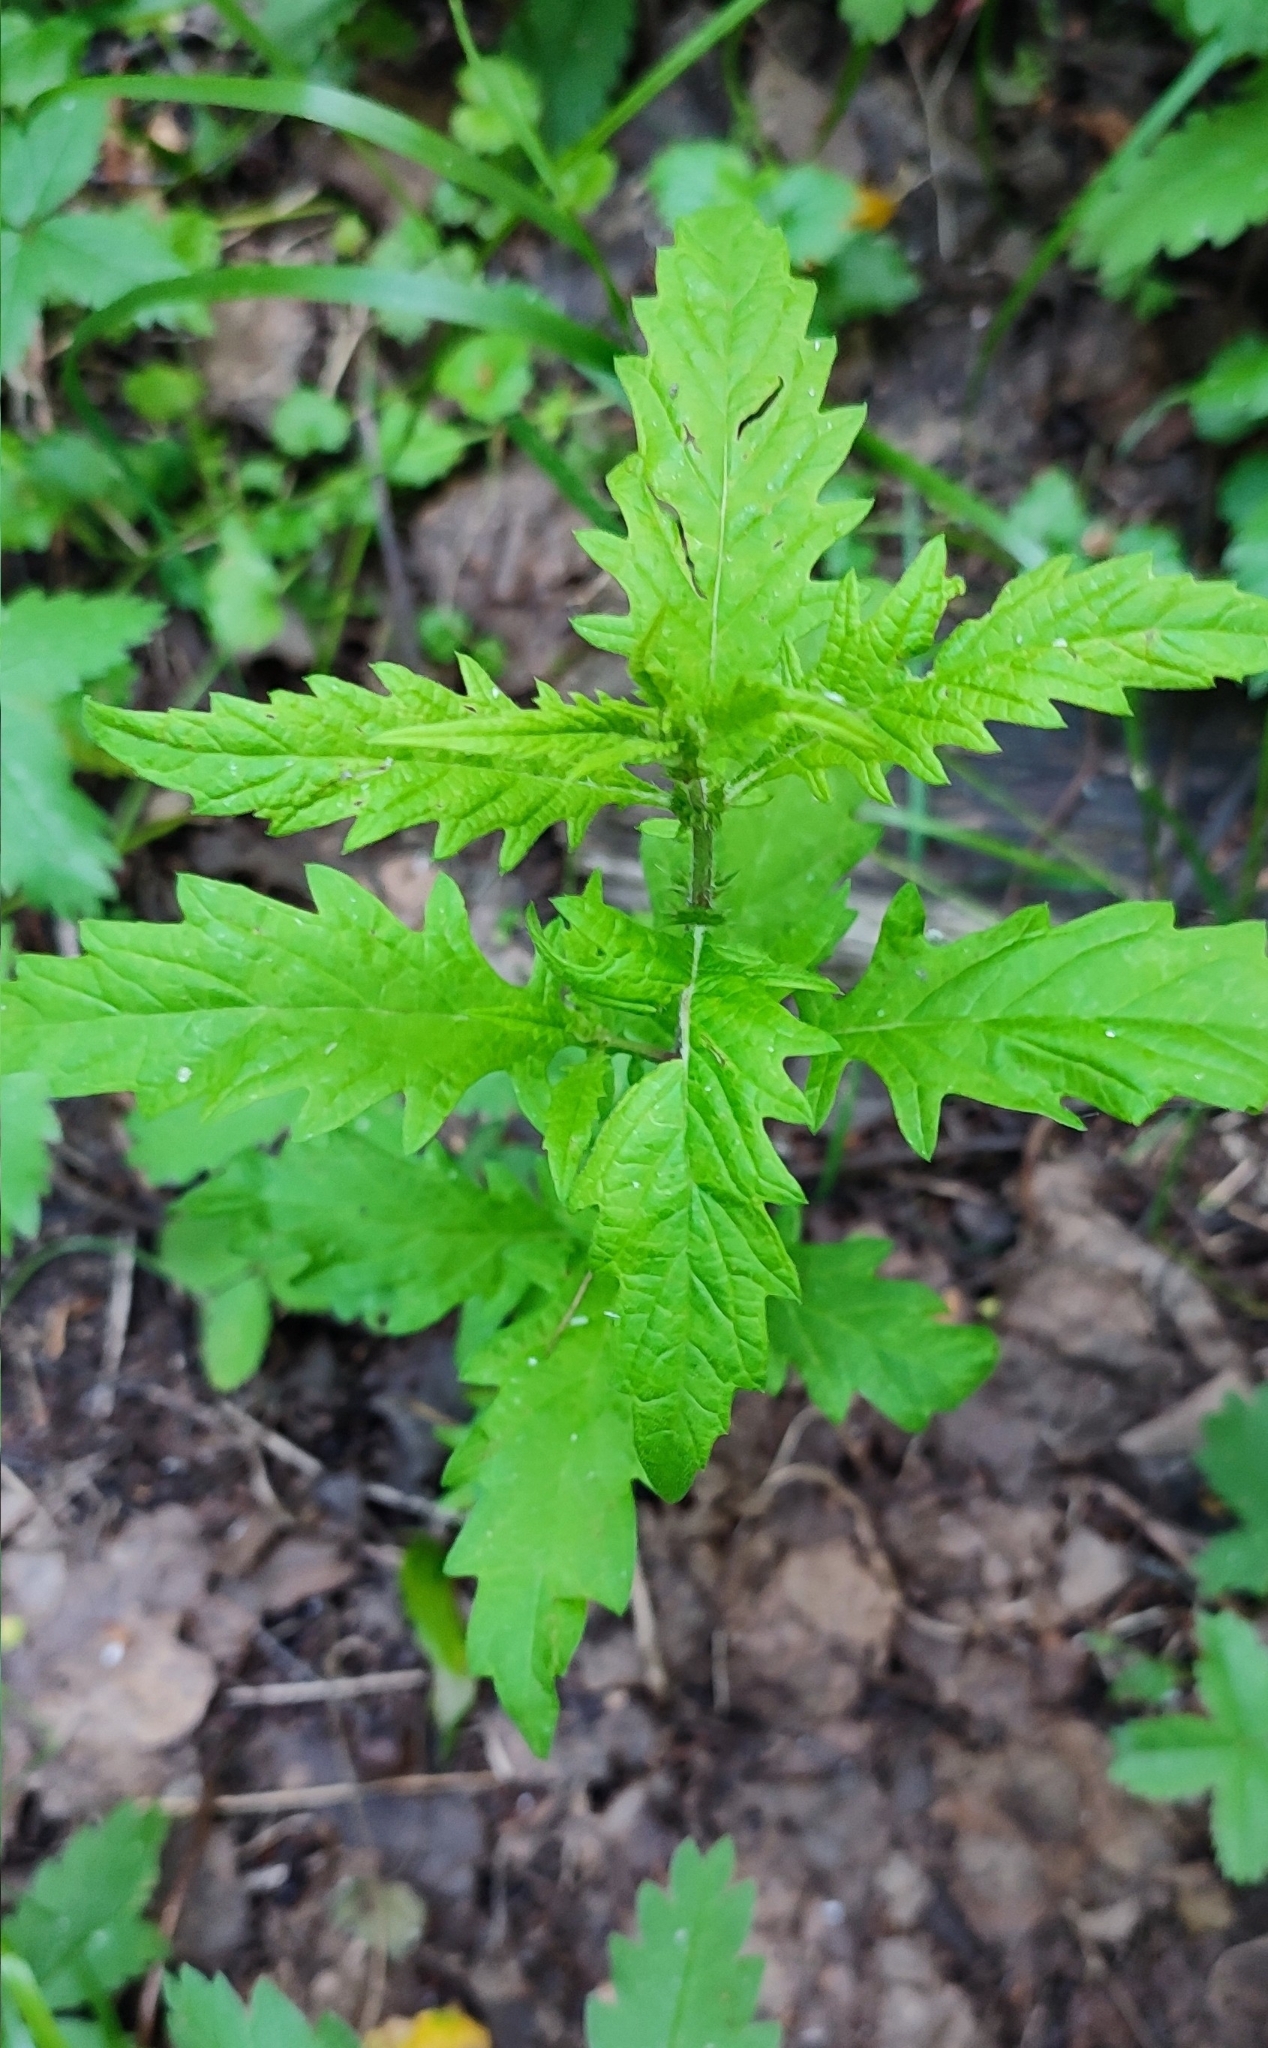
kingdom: Plantae
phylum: Tracheophyta
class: Magnoliopsida
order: Lamiales
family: Lamiaceae
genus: Lycopus
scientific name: Lycopus europaeus
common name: European bugleweed
